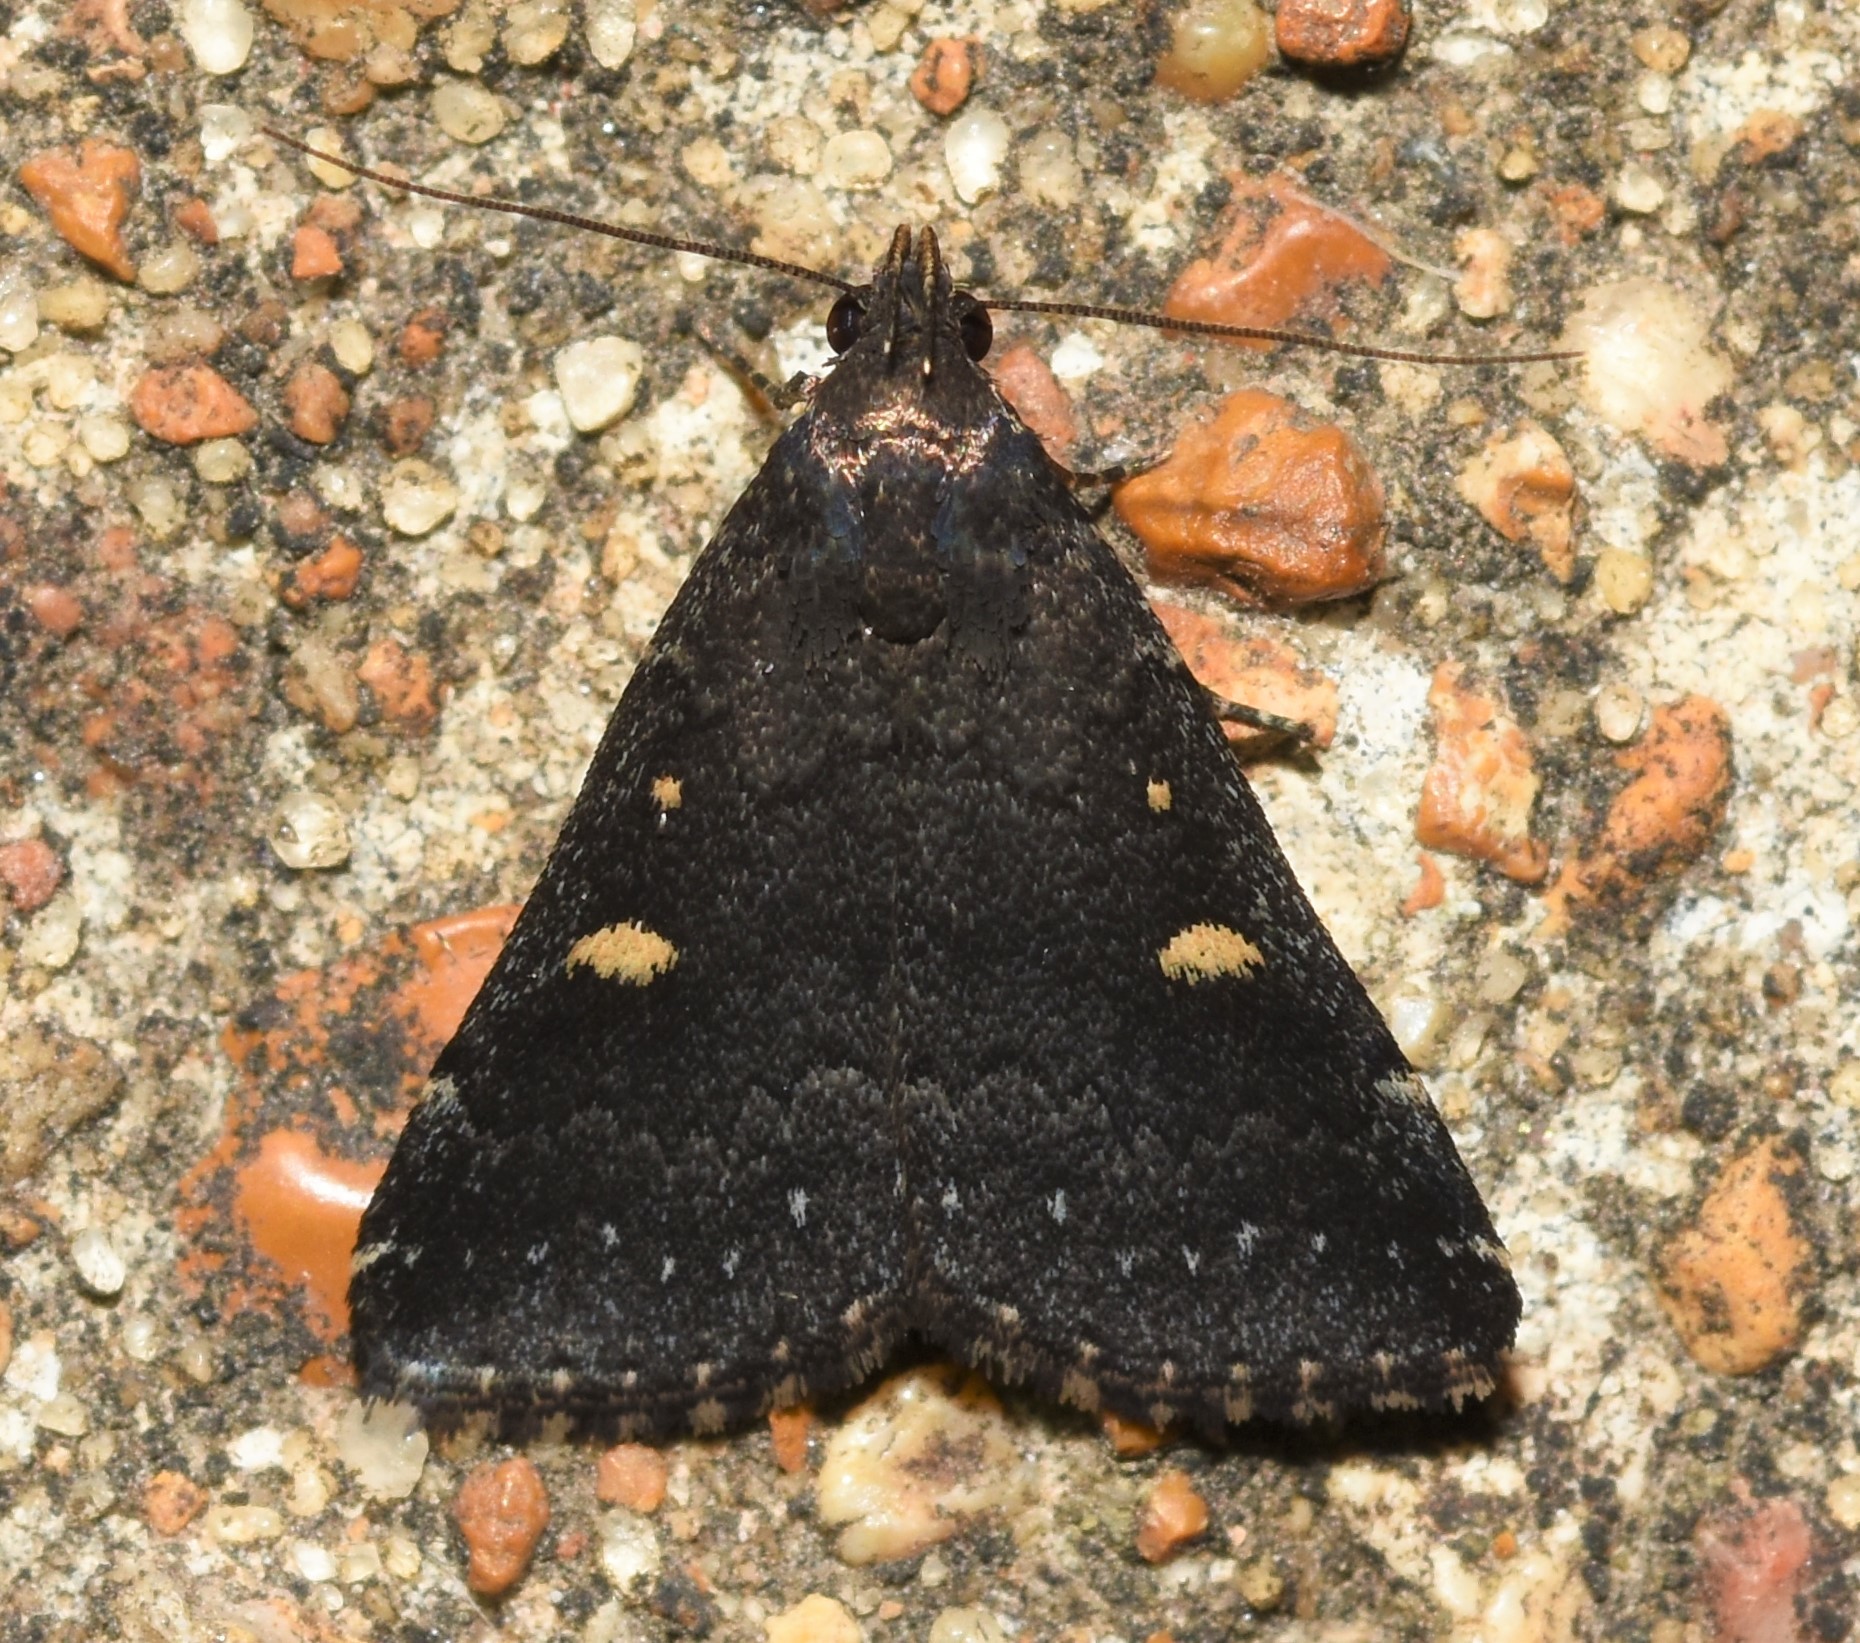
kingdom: Animalia
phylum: Arthropoda
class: Insecta
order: Lepidoptera
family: Erebidae
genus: Tetanolita
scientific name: Tetanolita mynesalis
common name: Smoky tetanolita moth
